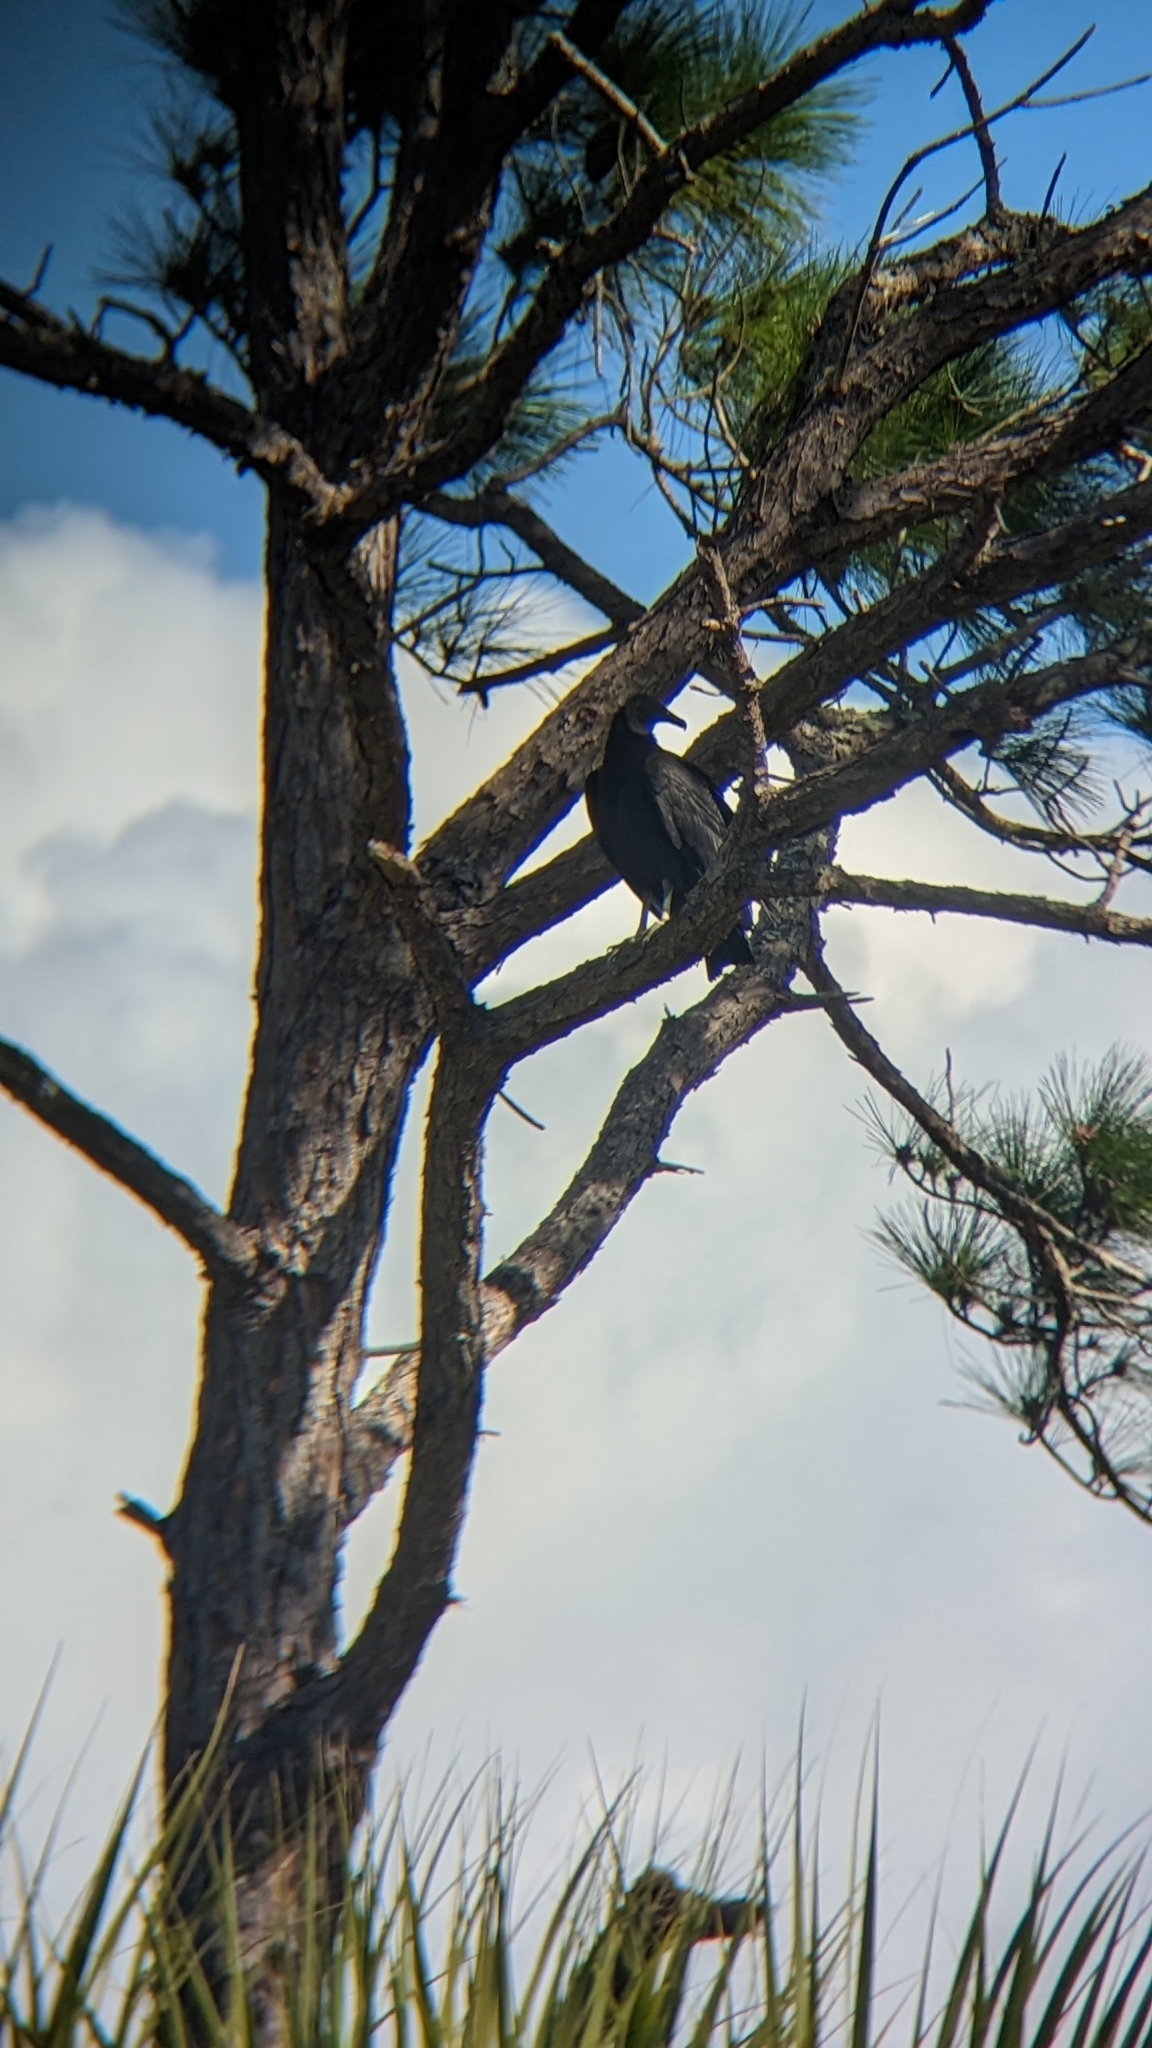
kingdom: Animalia
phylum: Chordata
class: Aves
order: Accipitriformes
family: Cathartidae
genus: Coragyps
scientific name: Coragyps atratus
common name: Black vulture
